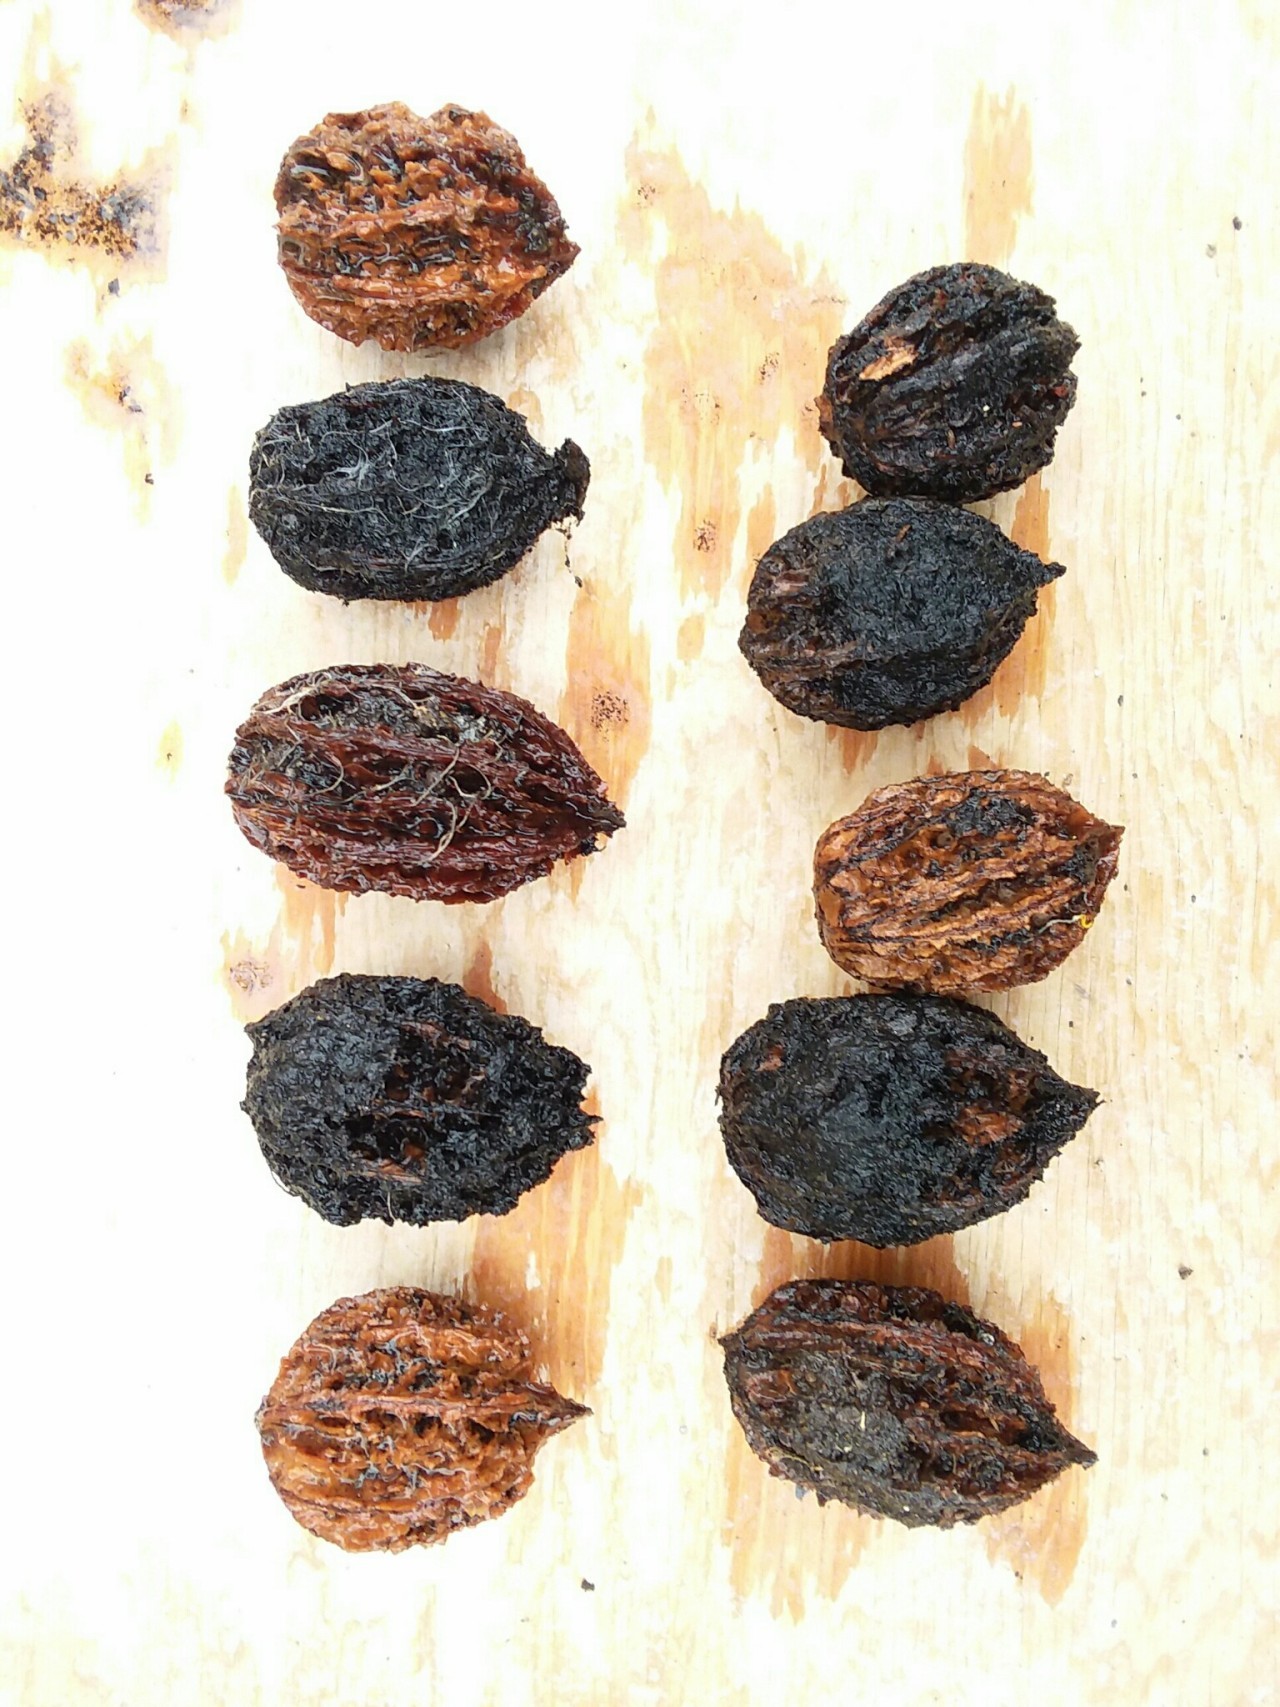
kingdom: Plantae
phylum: Tracheophyta
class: Magnoliopsida
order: Fagales
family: Juglandaceae
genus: Juglans
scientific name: Juglans cinerea
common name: Butternut
